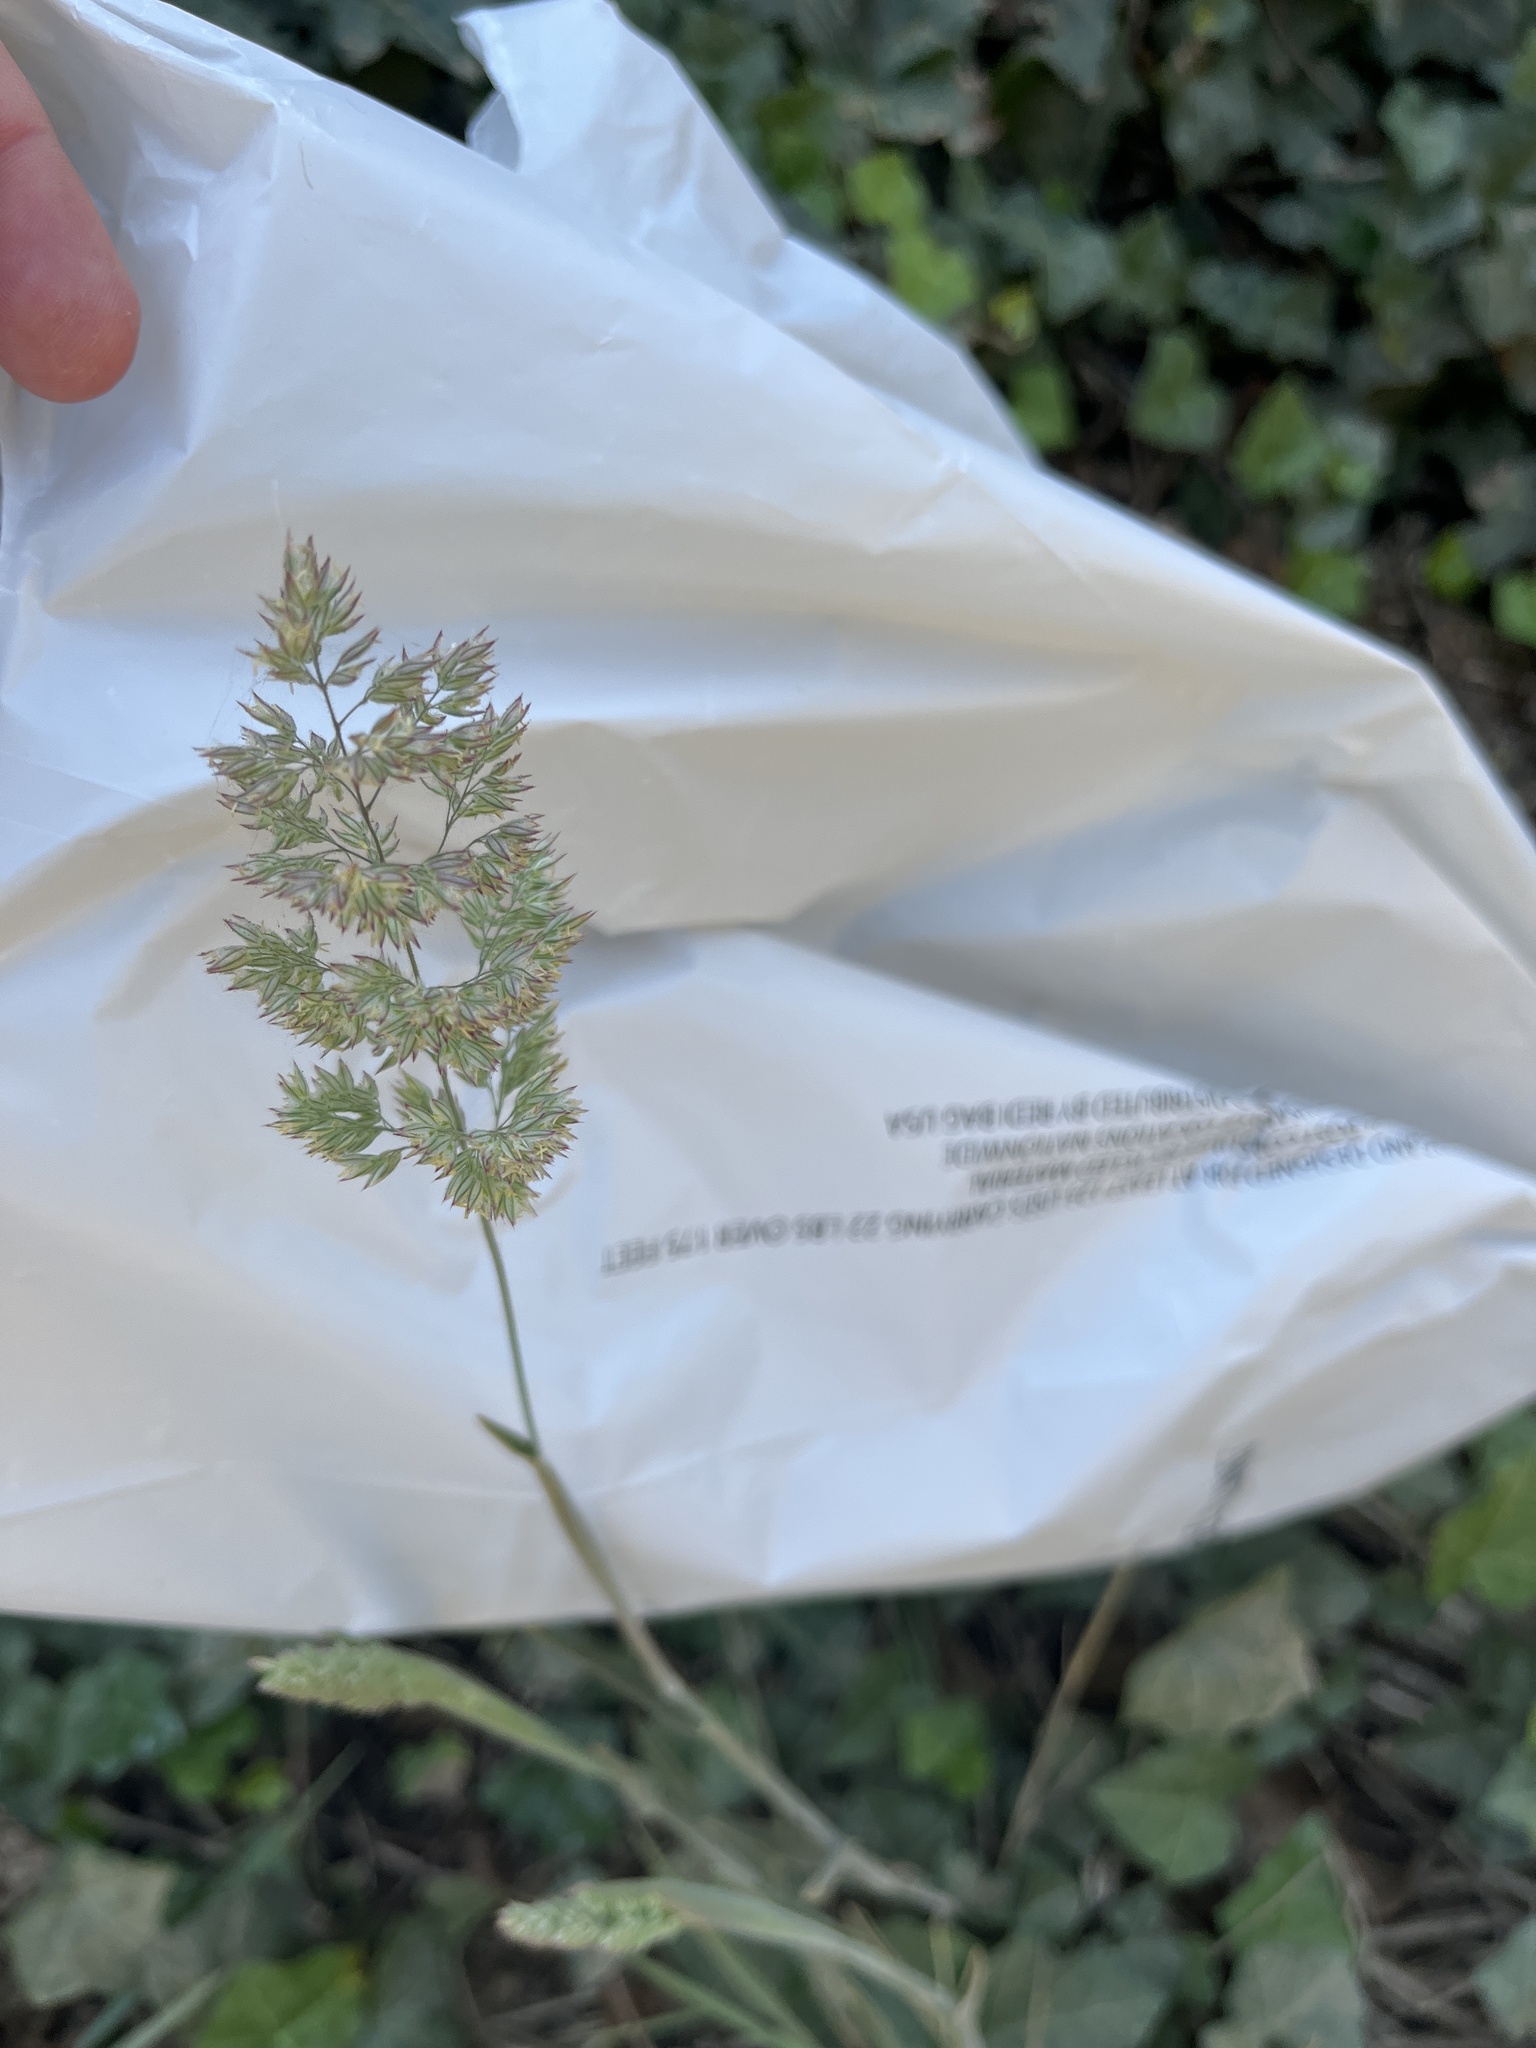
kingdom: Plantae
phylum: Tracheophyta
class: Liliopsida
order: Poales
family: Poaceae
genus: Dactylis
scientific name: Dactylis glomerata
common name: Orchardgrass
